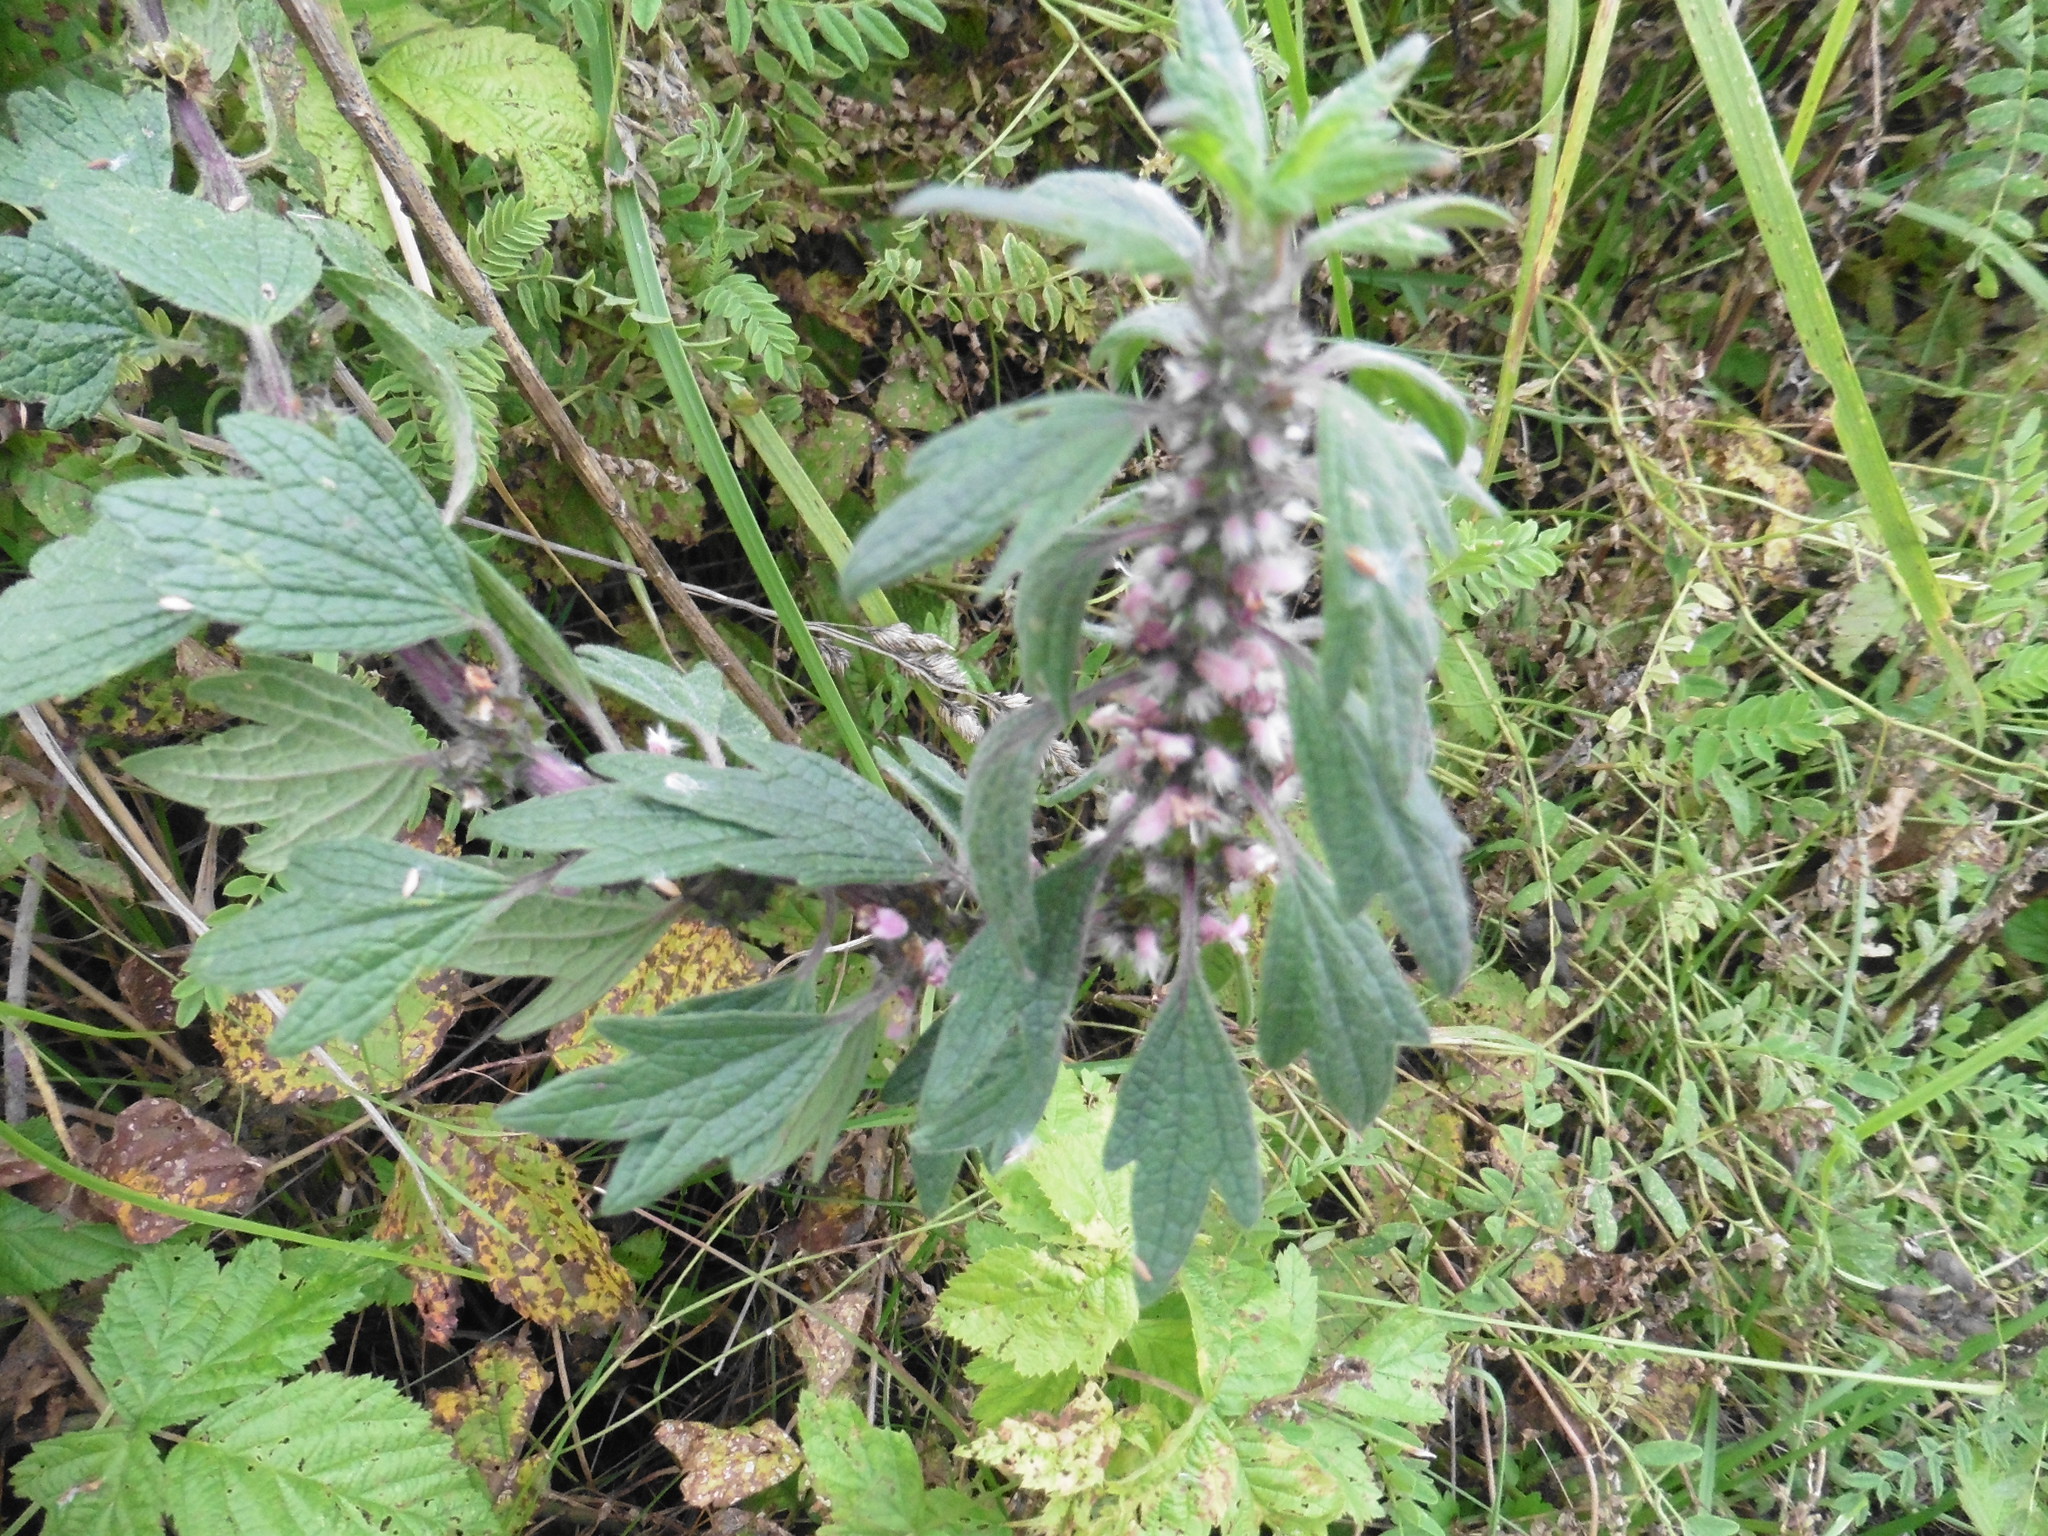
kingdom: Plantae
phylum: Tracheophyta
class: Magnoliopsida
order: Lamiales
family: Lamiaceae
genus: Leonurus
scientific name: Leonurus quinquelobatus
